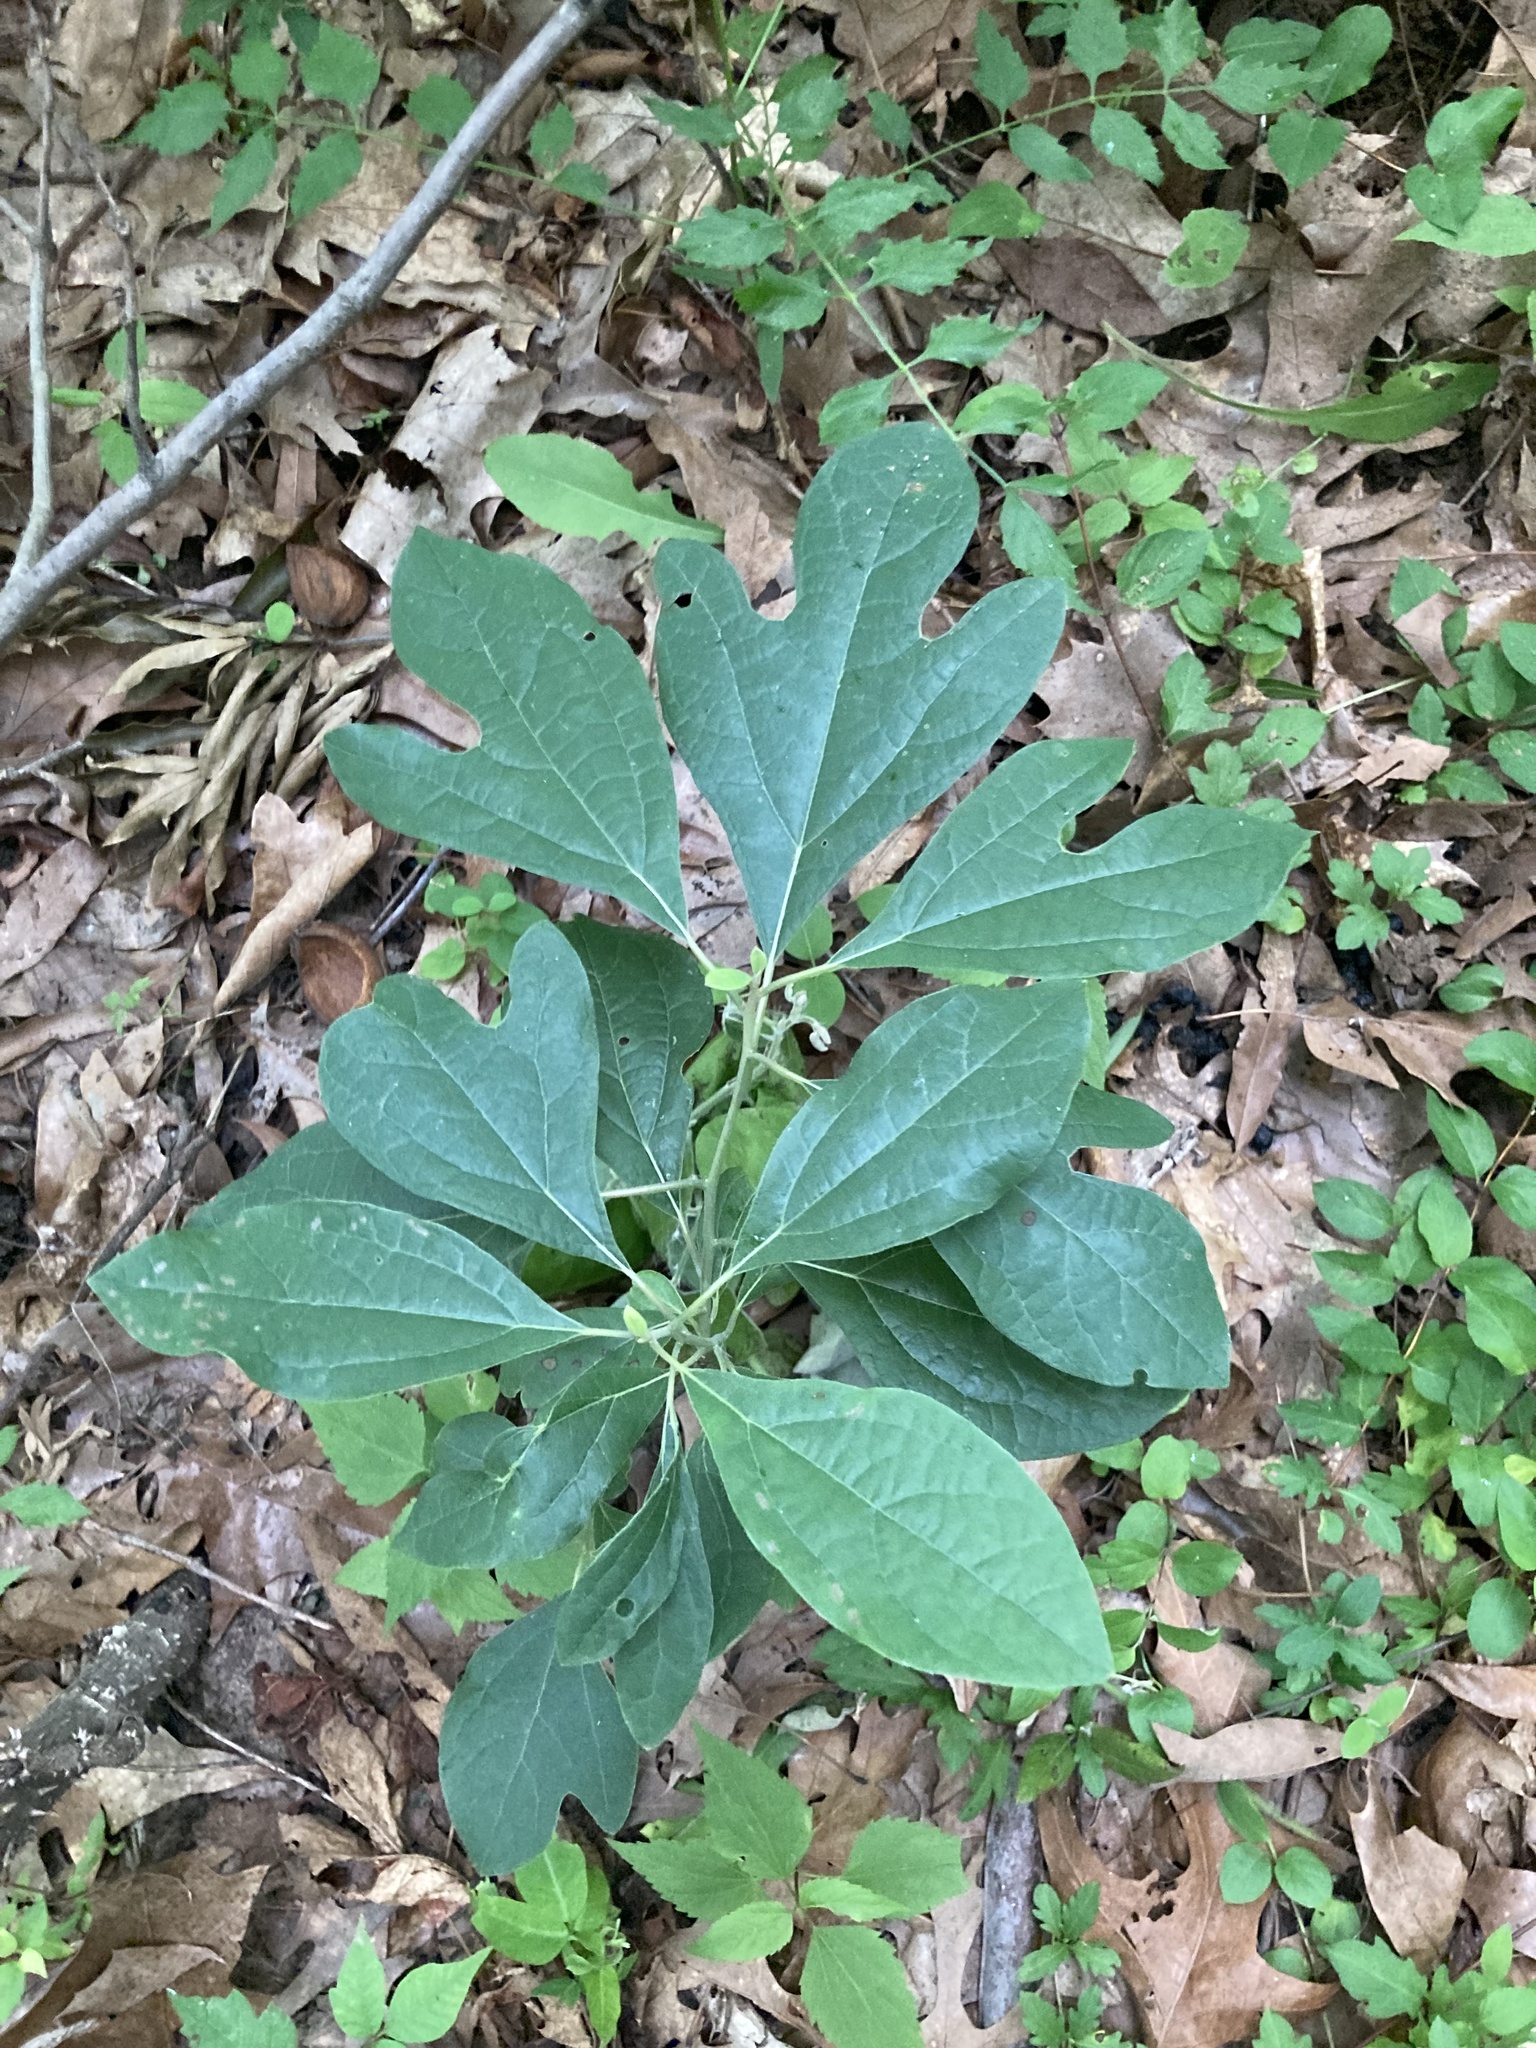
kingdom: Plantae
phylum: Tracheophyta
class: Magnoliopsida
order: Laurales
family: Lauraceae
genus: Sassafras
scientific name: Sassafras albidum
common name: Sassafras
